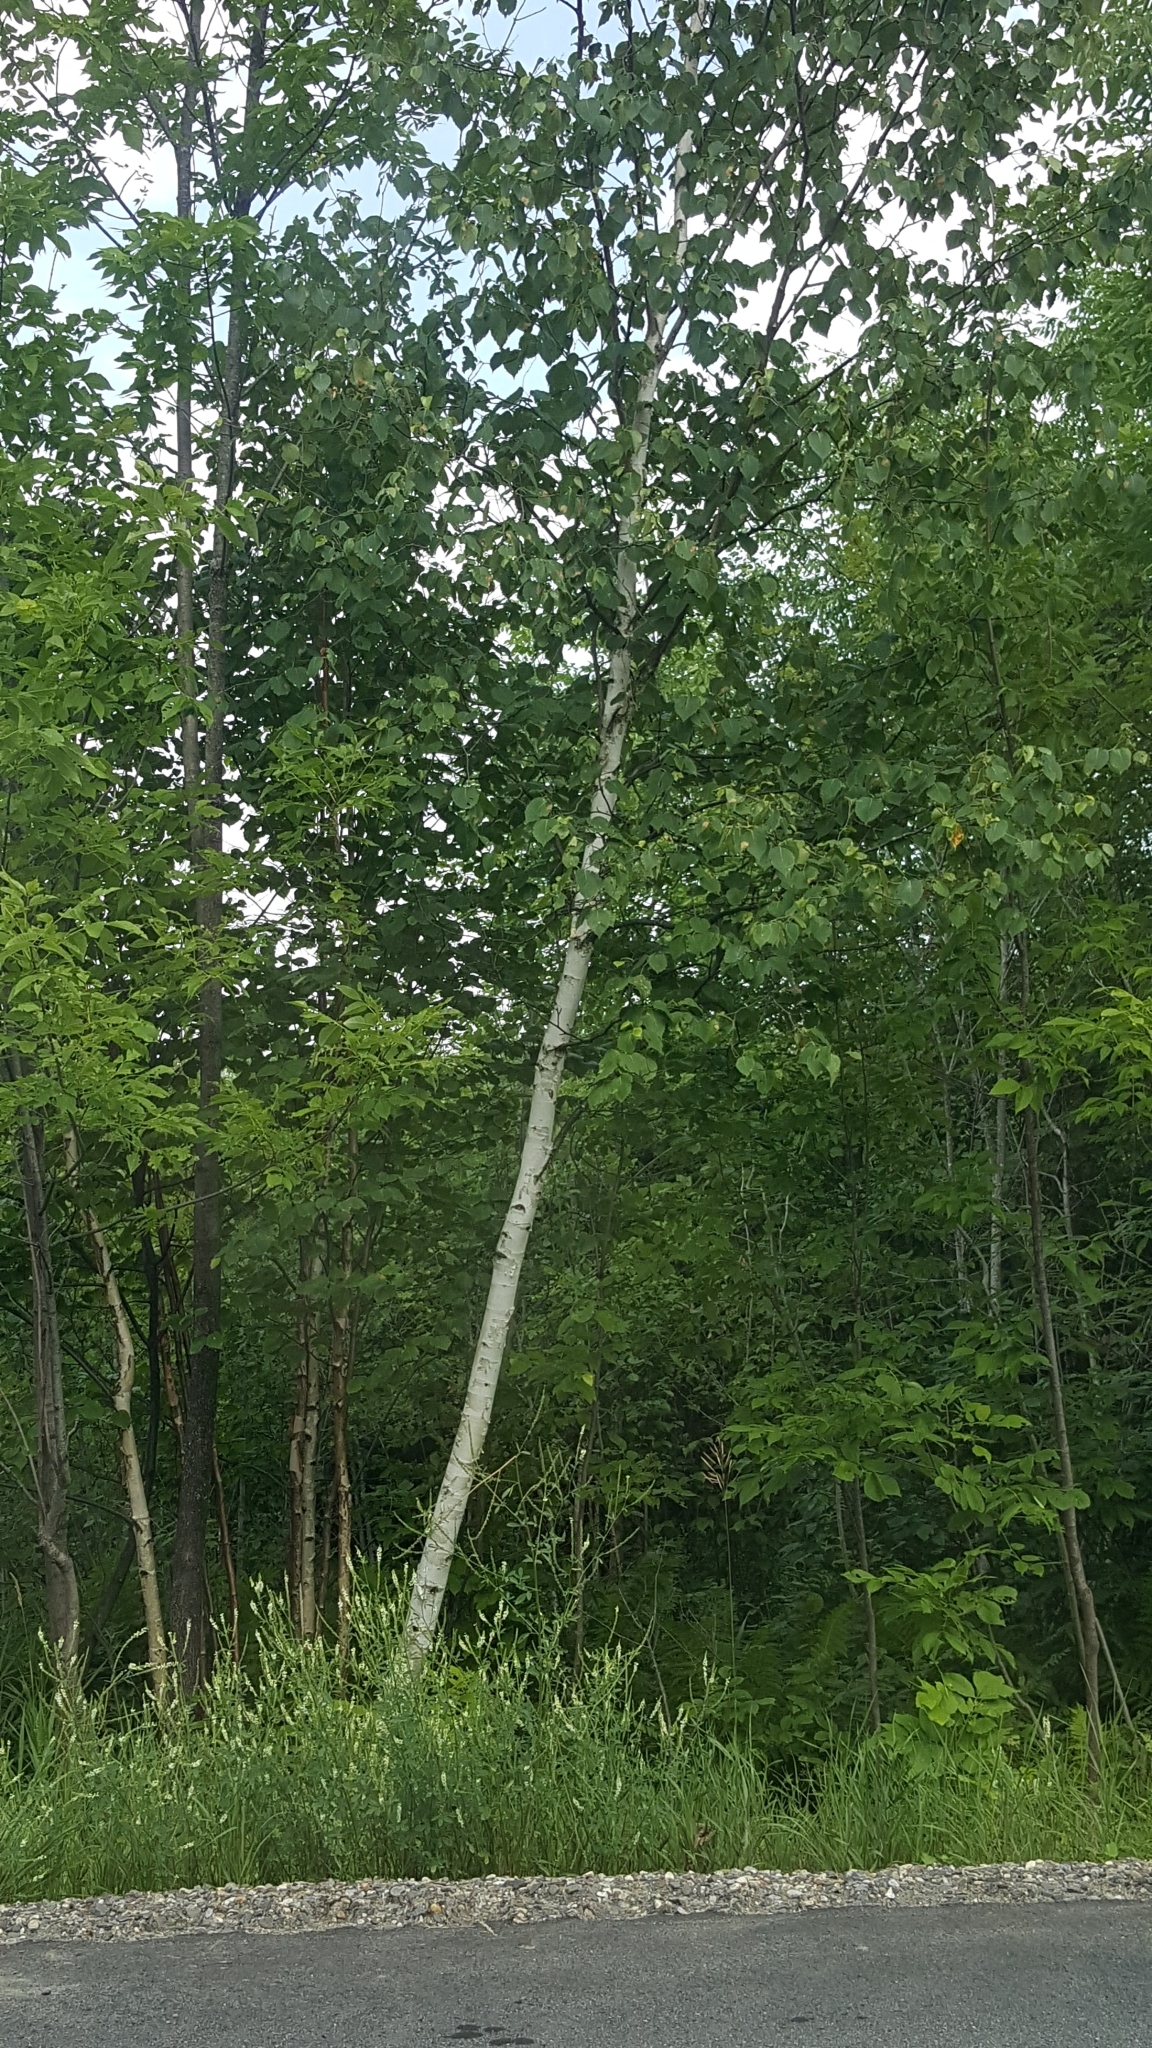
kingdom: Plantae
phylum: Tracheophyta
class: Magnoliopsida
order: Fagales
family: Betulaceae
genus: Betula
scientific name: Betula papyrifera
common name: Paper birch
